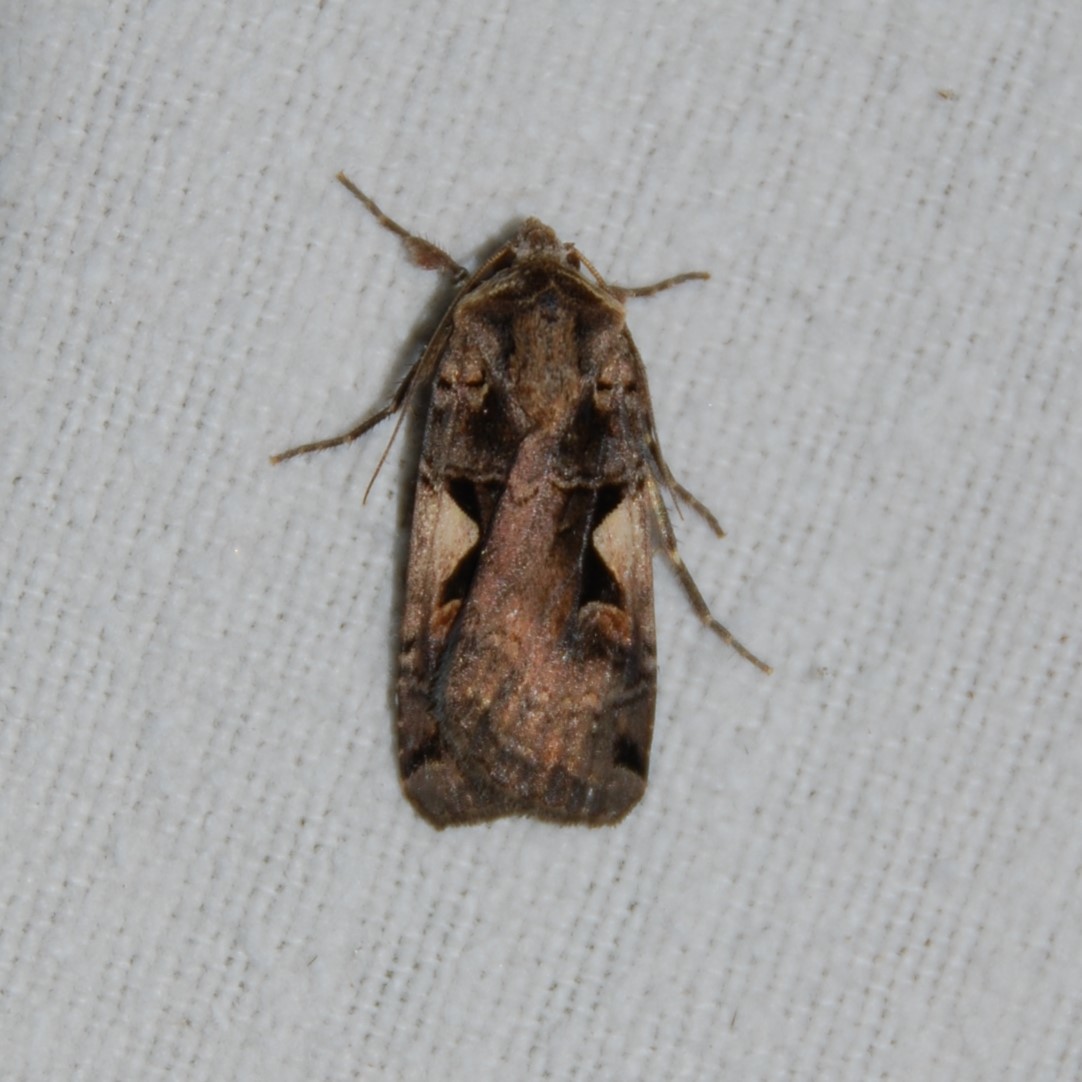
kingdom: Animalia
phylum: Arthropoda
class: Insecta
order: Lepidoptera
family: Noctuidae
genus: Xestia
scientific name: Xestia c-nigrum
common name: Setaceous hebrew character
